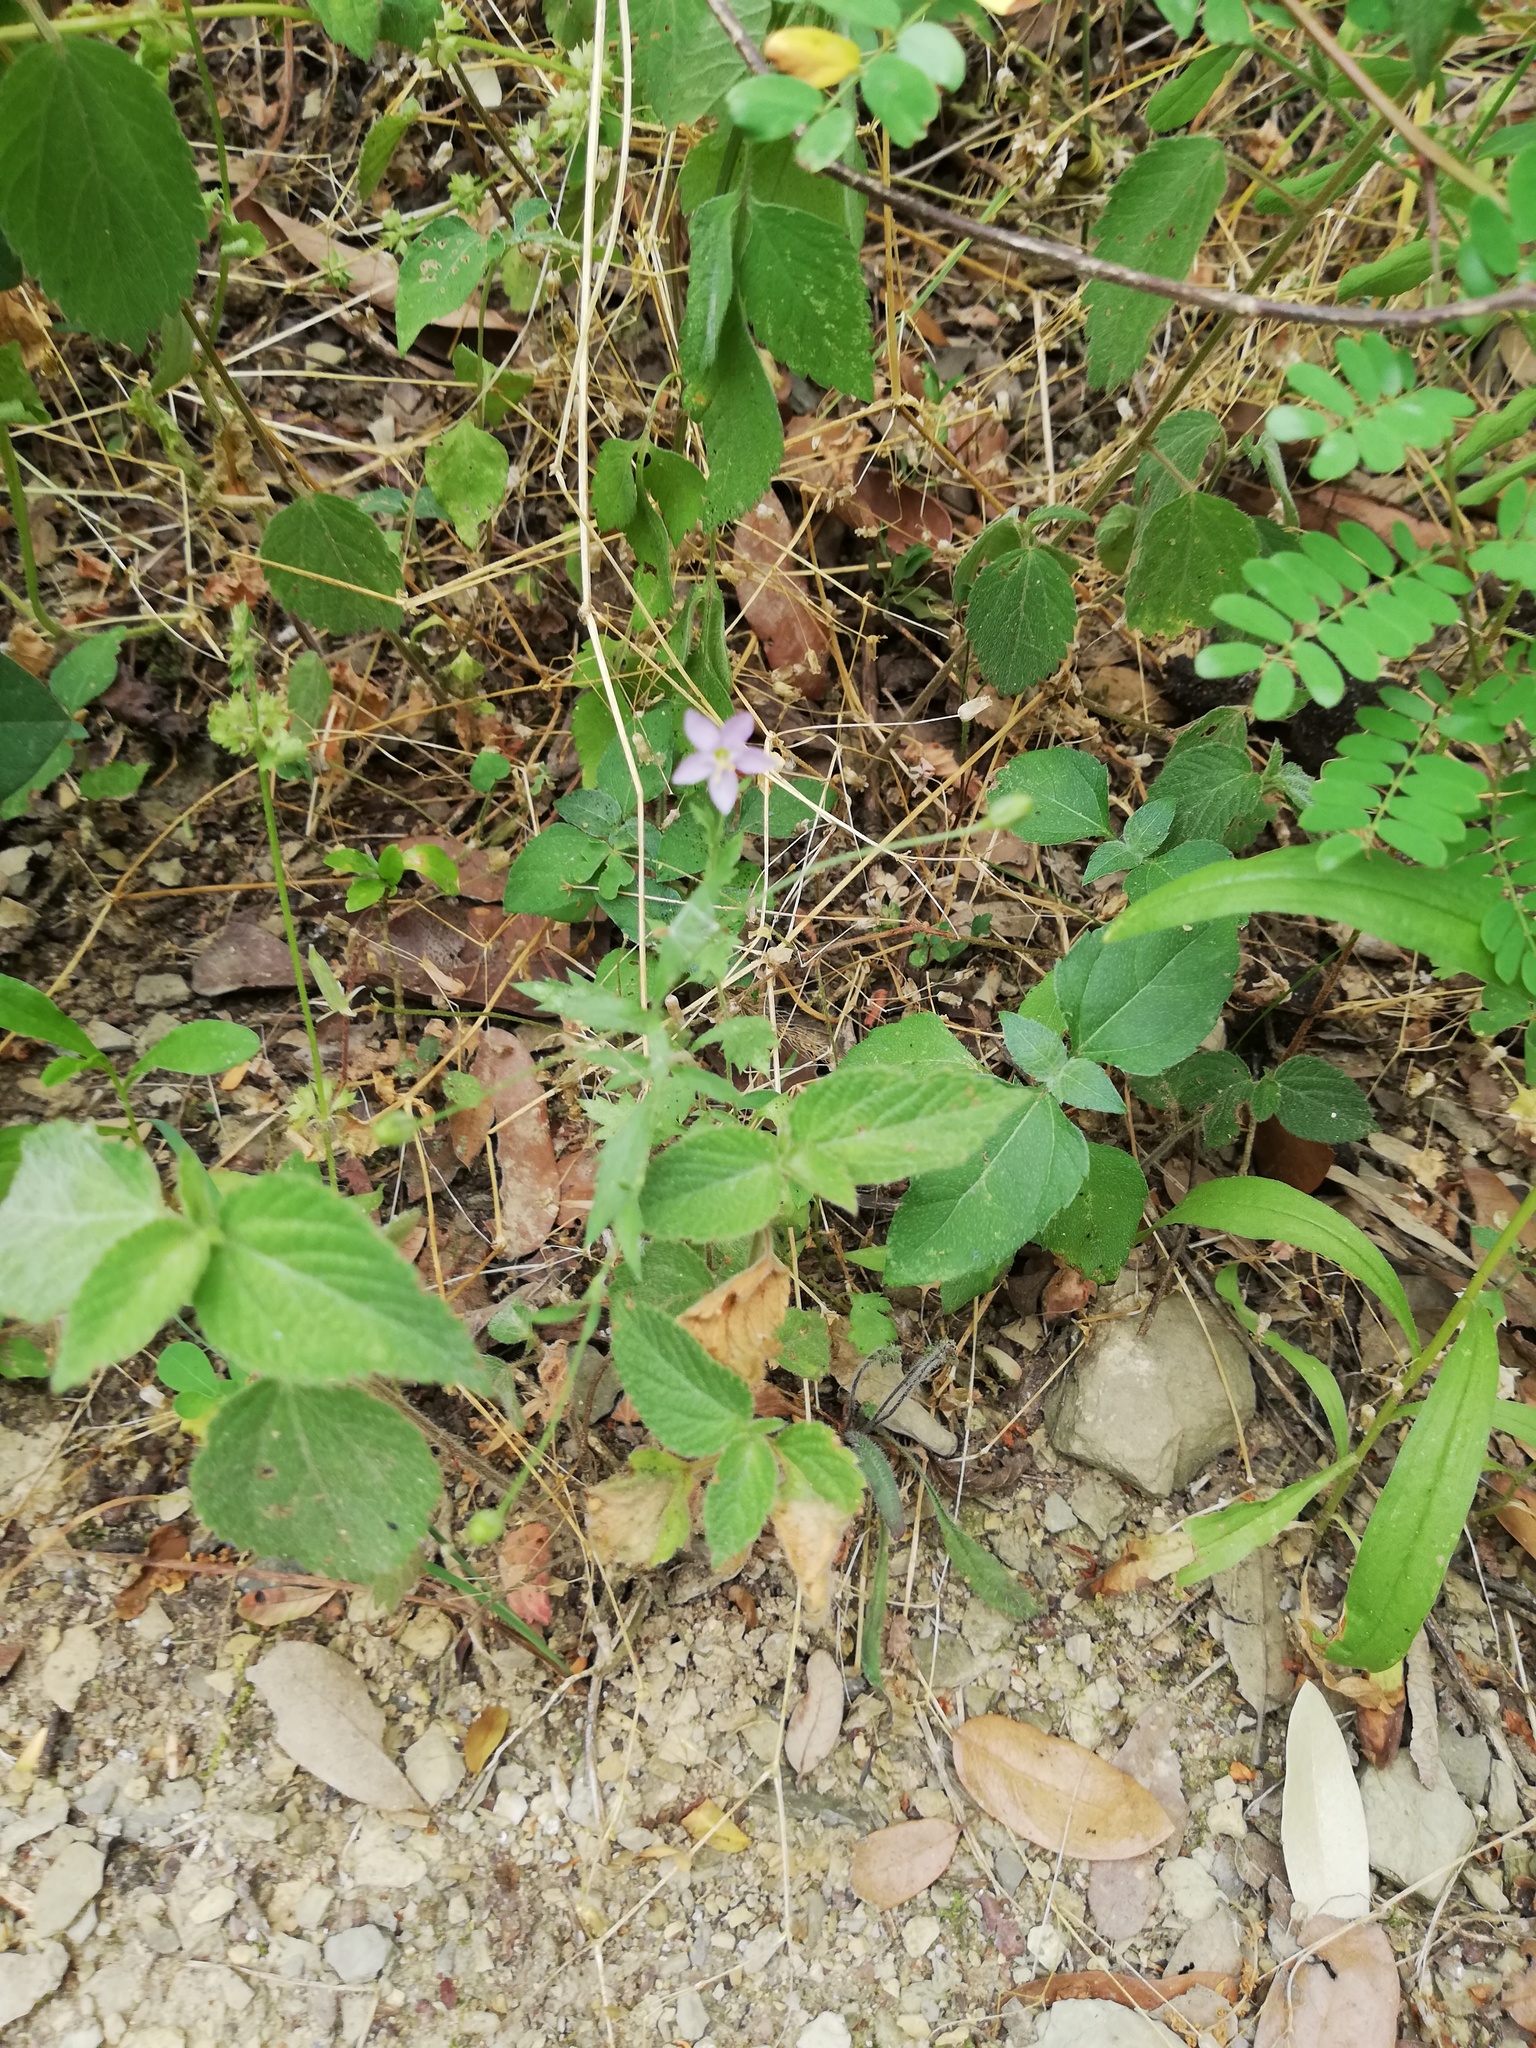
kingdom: Plantae
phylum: Tracheophyta
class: Magnoliopsida
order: Ericales
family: Polemoniaceae
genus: Giliastrum
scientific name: Giliastrum incisum
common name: Splitleaf gilia
